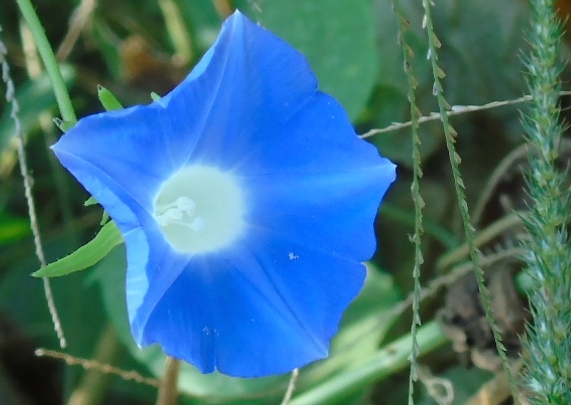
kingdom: Plantae
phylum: Tracheophyta
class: Magnoliopsida
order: Solanales
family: Convolvulaceae
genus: Ipomoea
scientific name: Ipomoea indica
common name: Blue dawnflower
